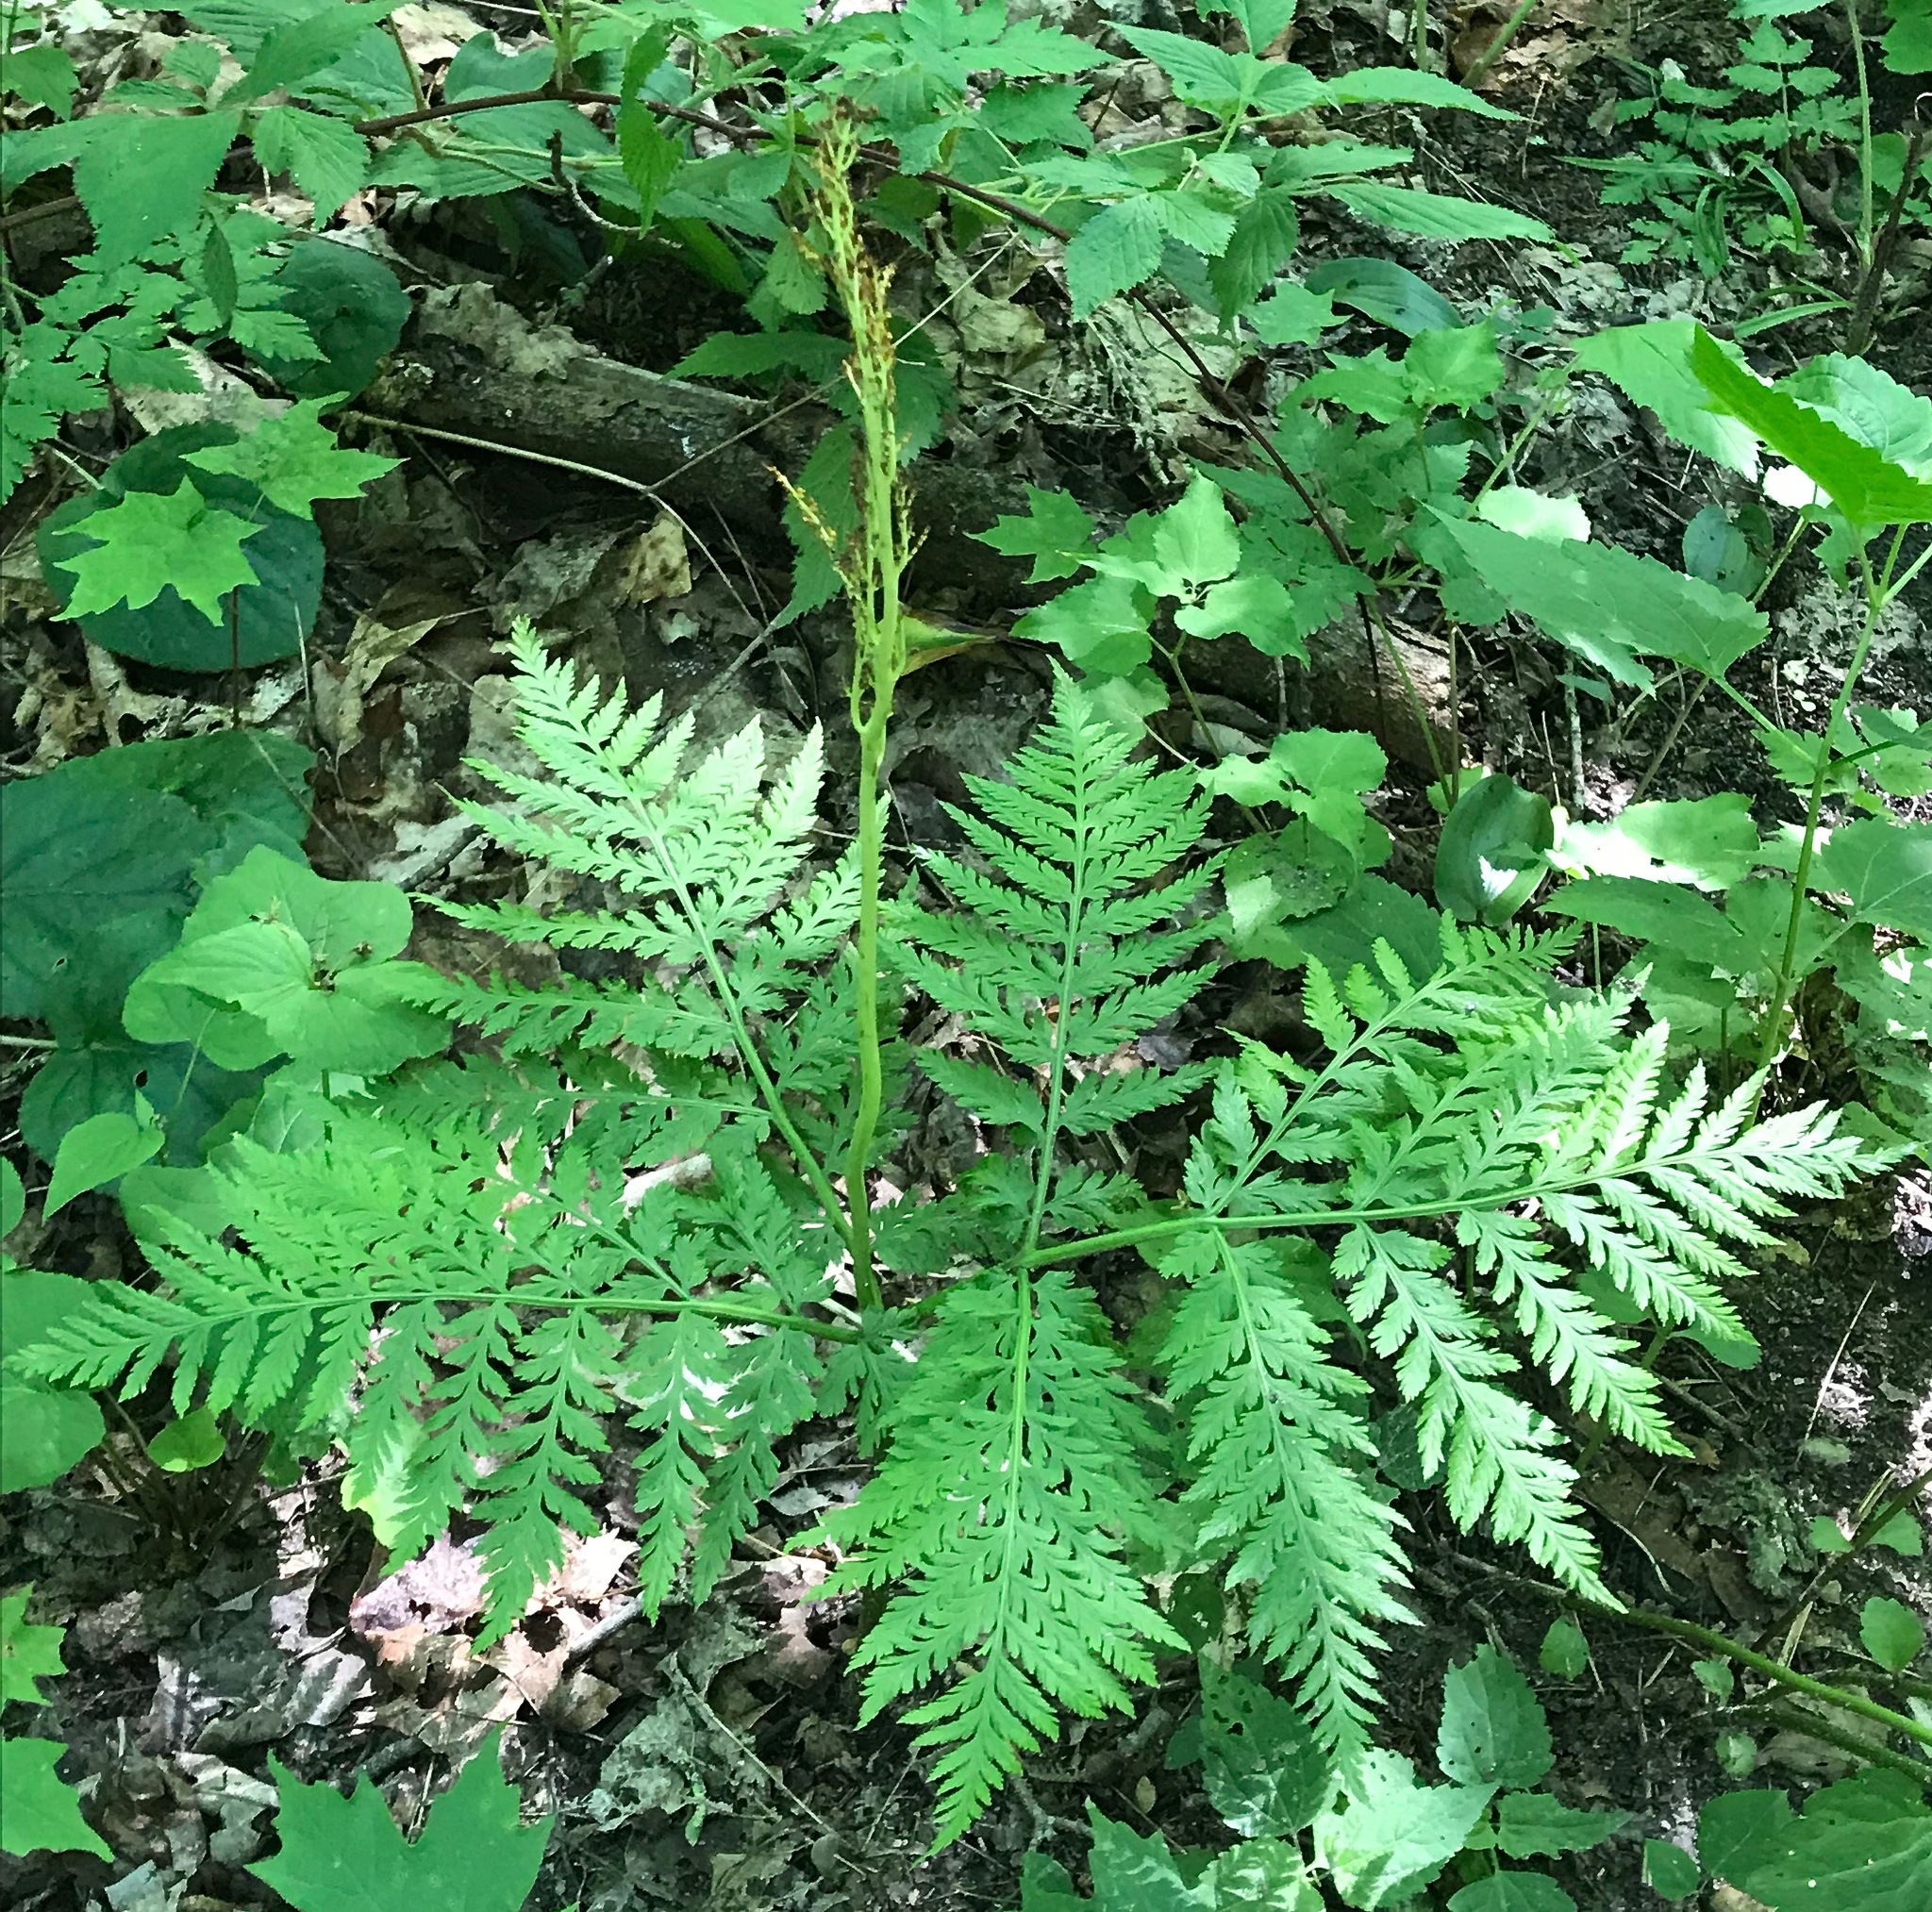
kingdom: Plantae
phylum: Tracheophyta
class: Polypodiopsida
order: Ophioglossales
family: Ophioglossaceae
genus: Botrypus
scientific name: Botrypus virginianus
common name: Common grapefern
